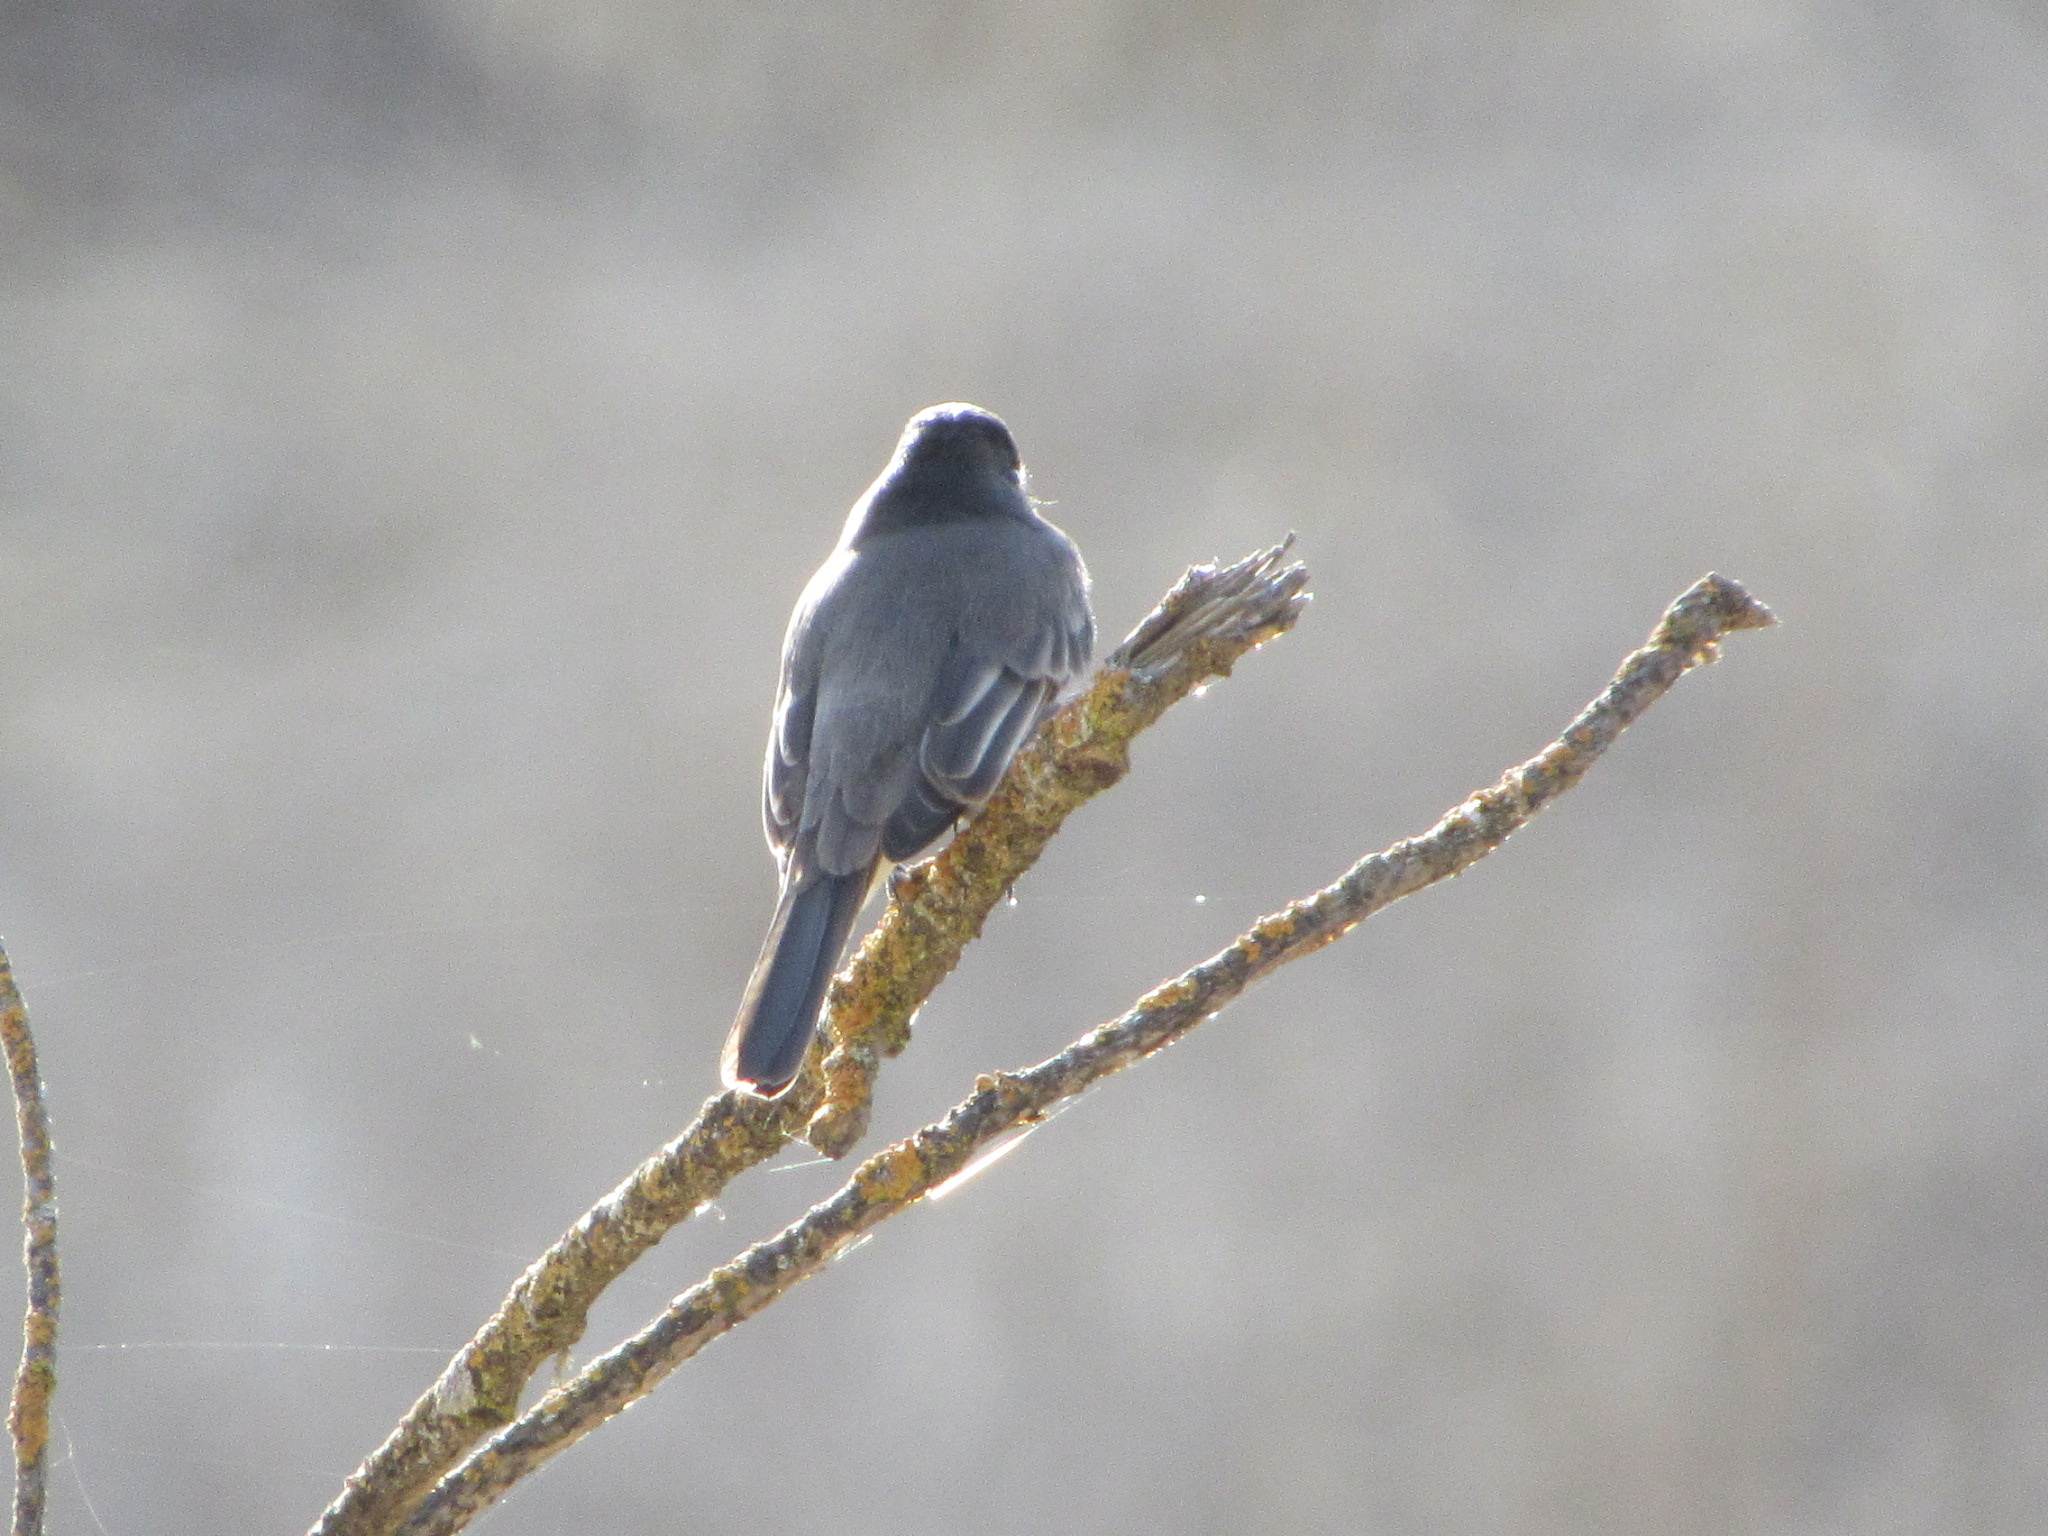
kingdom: Animalia
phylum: Chordata
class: Aves
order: Passeriformes
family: Tyrannidae
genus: Sayornis
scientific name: Sayornis nigricans
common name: Black phoebe
